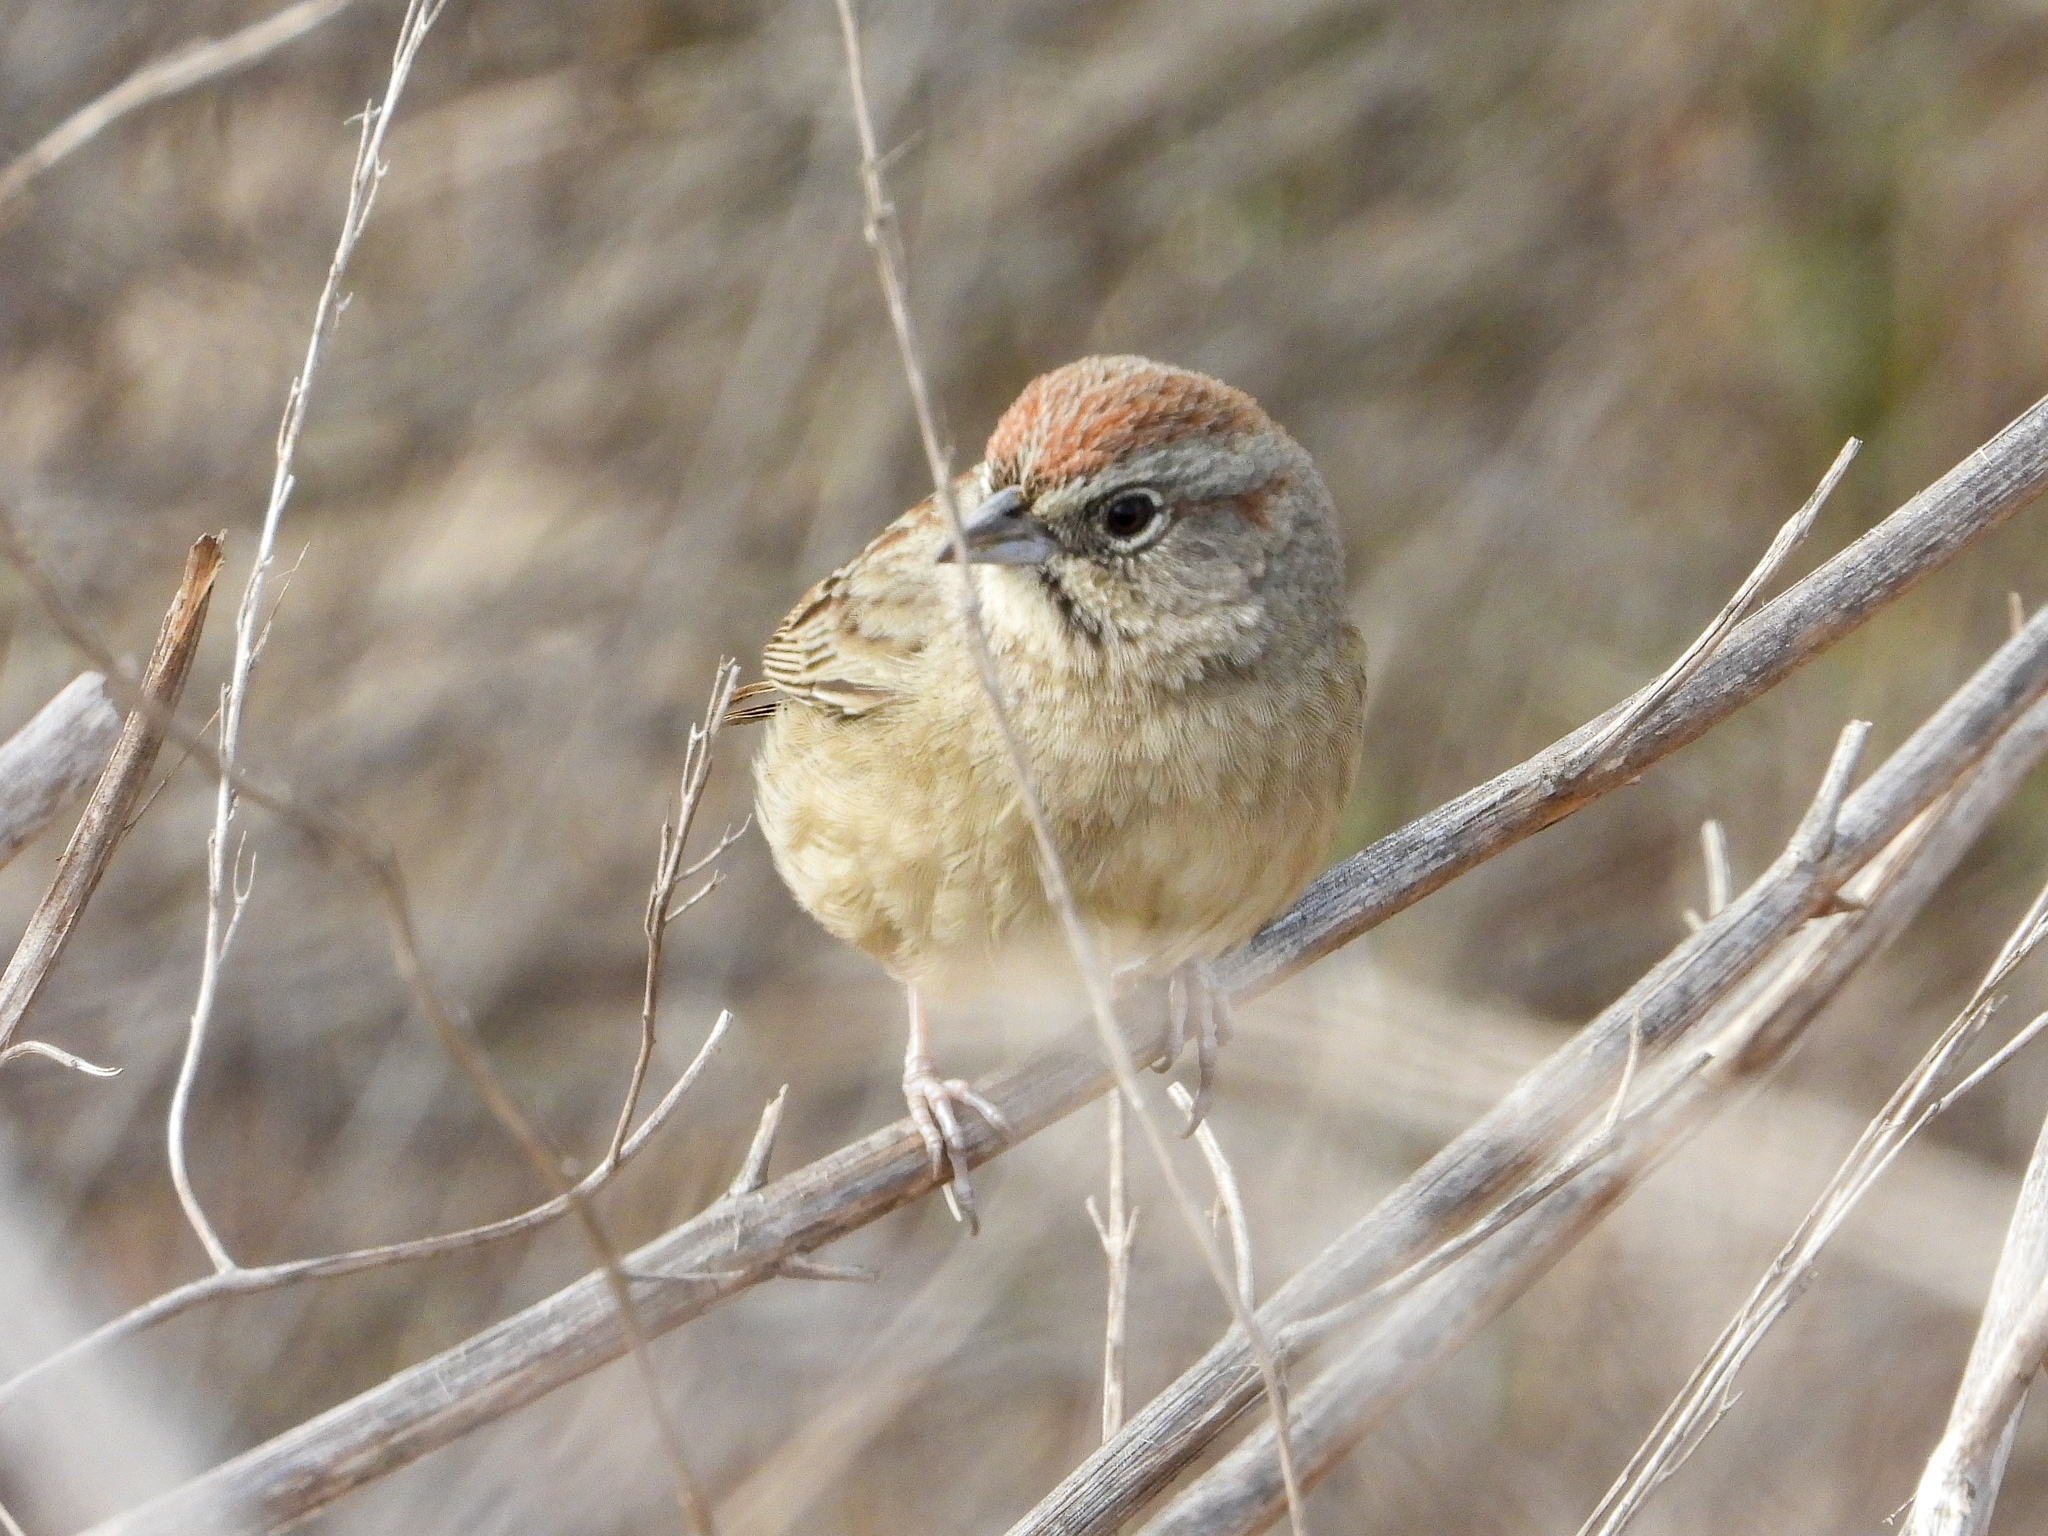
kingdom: Animalia
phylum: Chordata
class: Aves
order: Passeriformes
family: Passerellidae
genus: Aimophila
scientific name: Aimophila ruficeps
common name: Rufous-crowned sparrow
